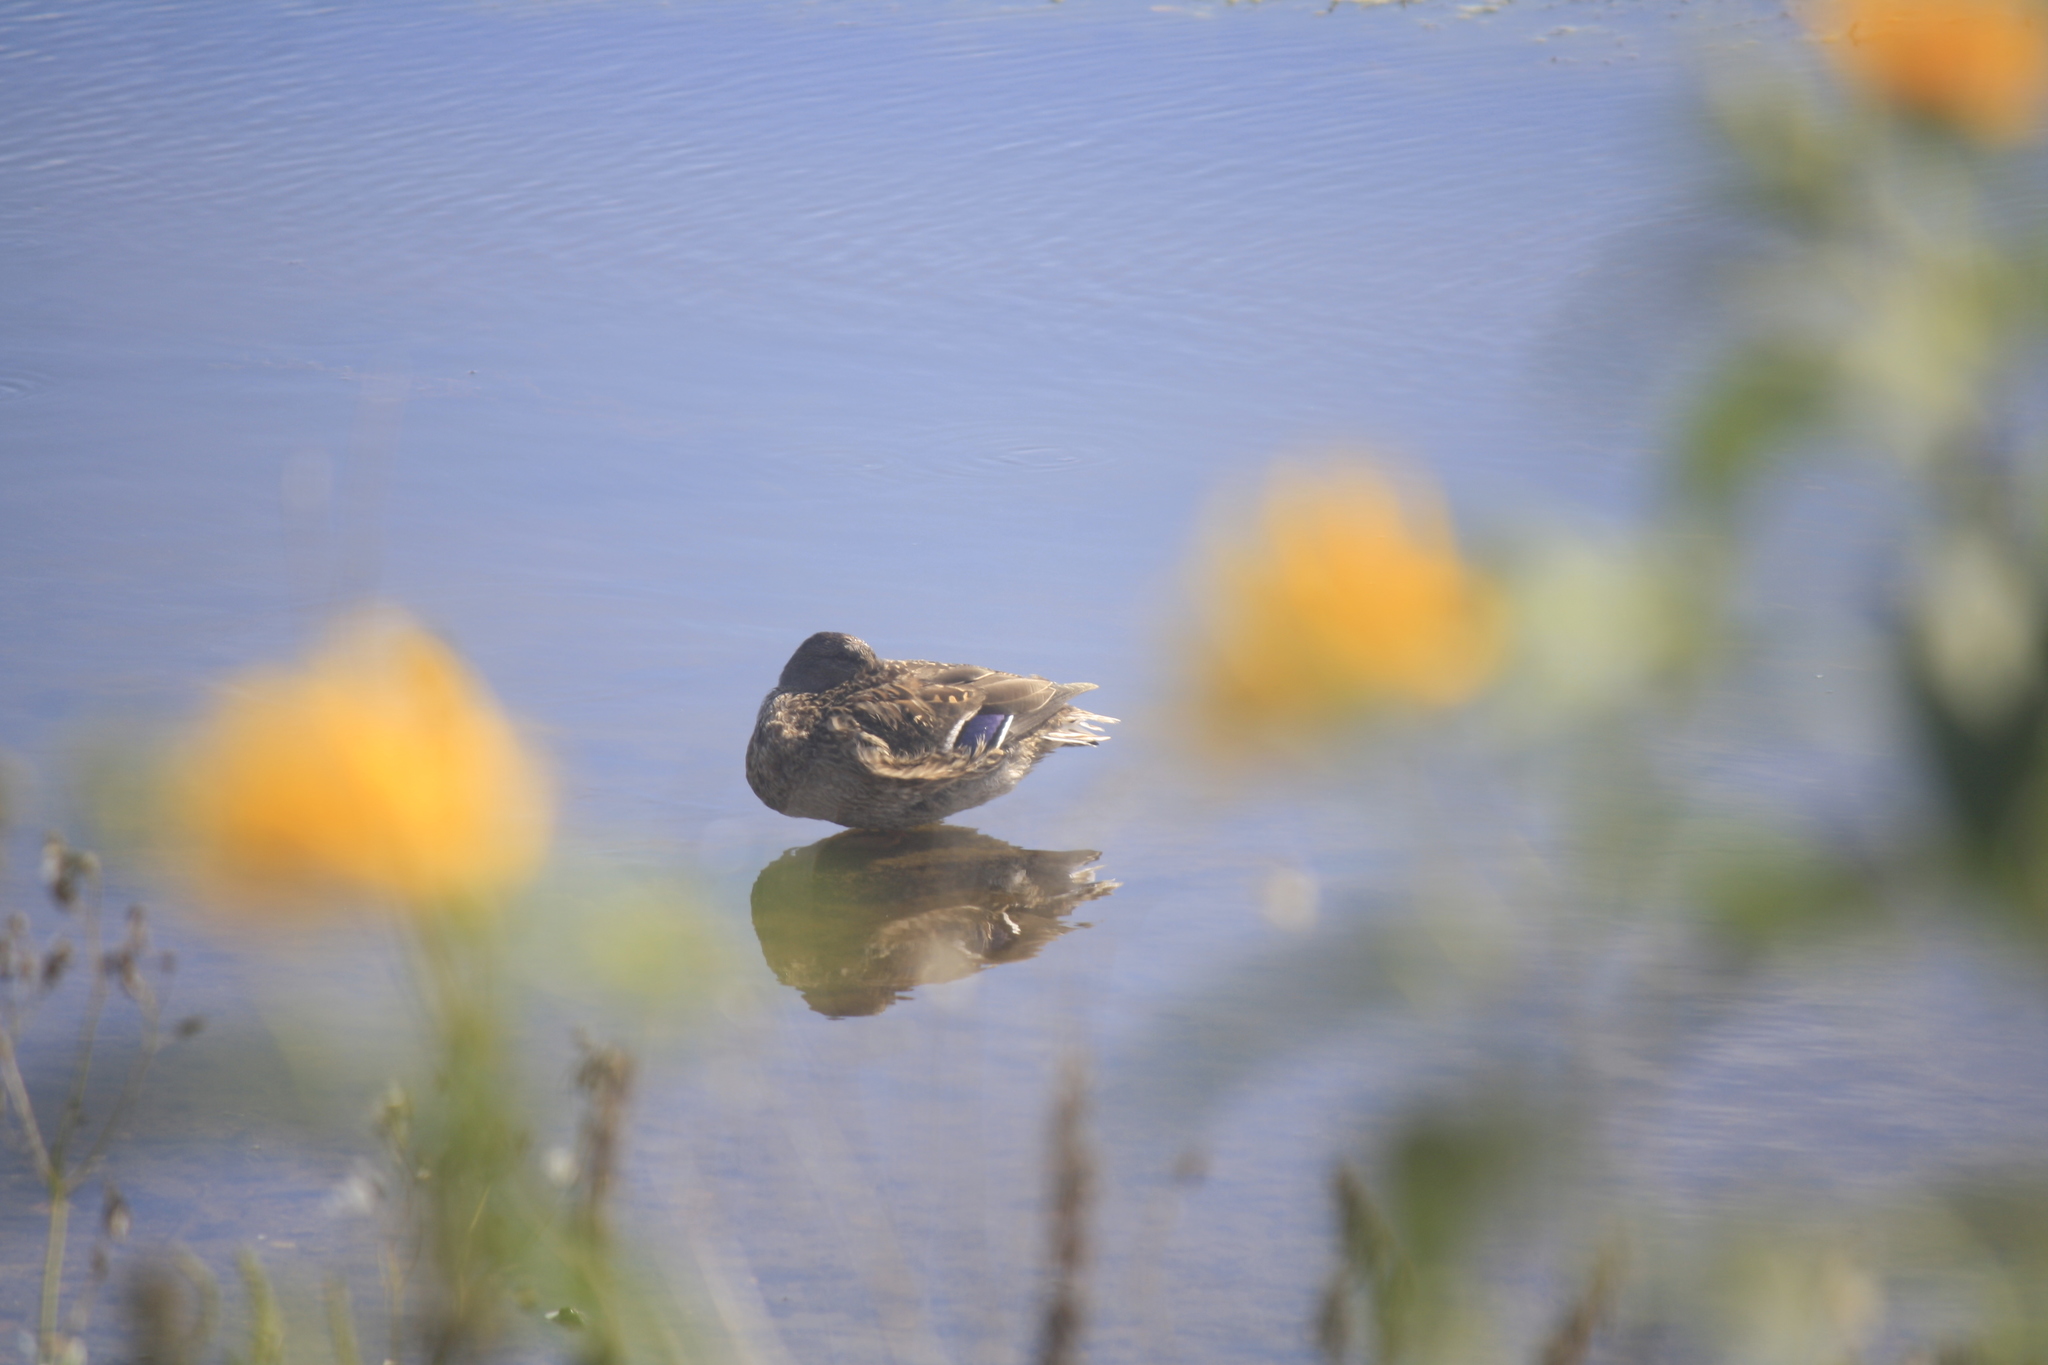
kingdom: Animalia
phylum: Chordata
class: Aves
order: Anseriformes
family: Anatidae
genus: Anas
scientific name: Anas platyrhynchos
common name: Mallard
